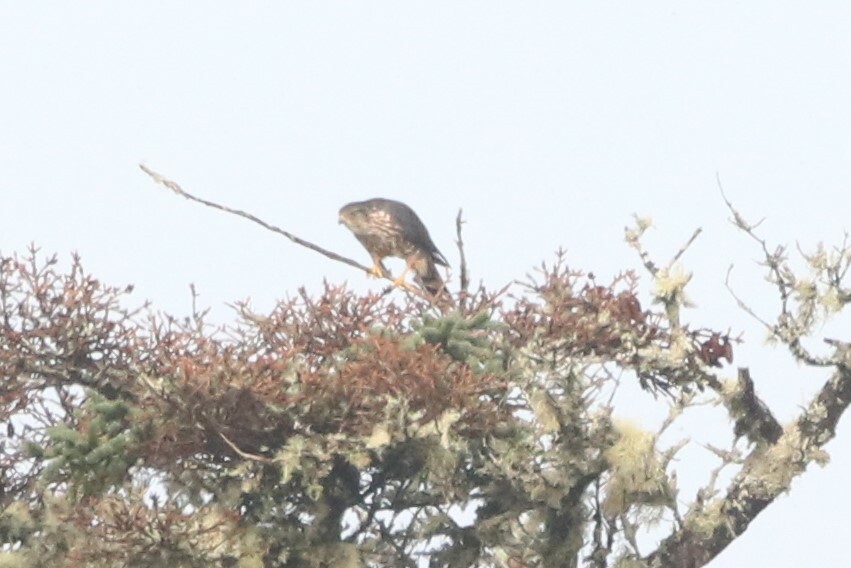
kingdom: Animalia
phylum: Chordata
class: Aves
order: Falconiformes
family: Falconidae
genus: Falco
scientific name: Falco columbarius
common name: Merlin
